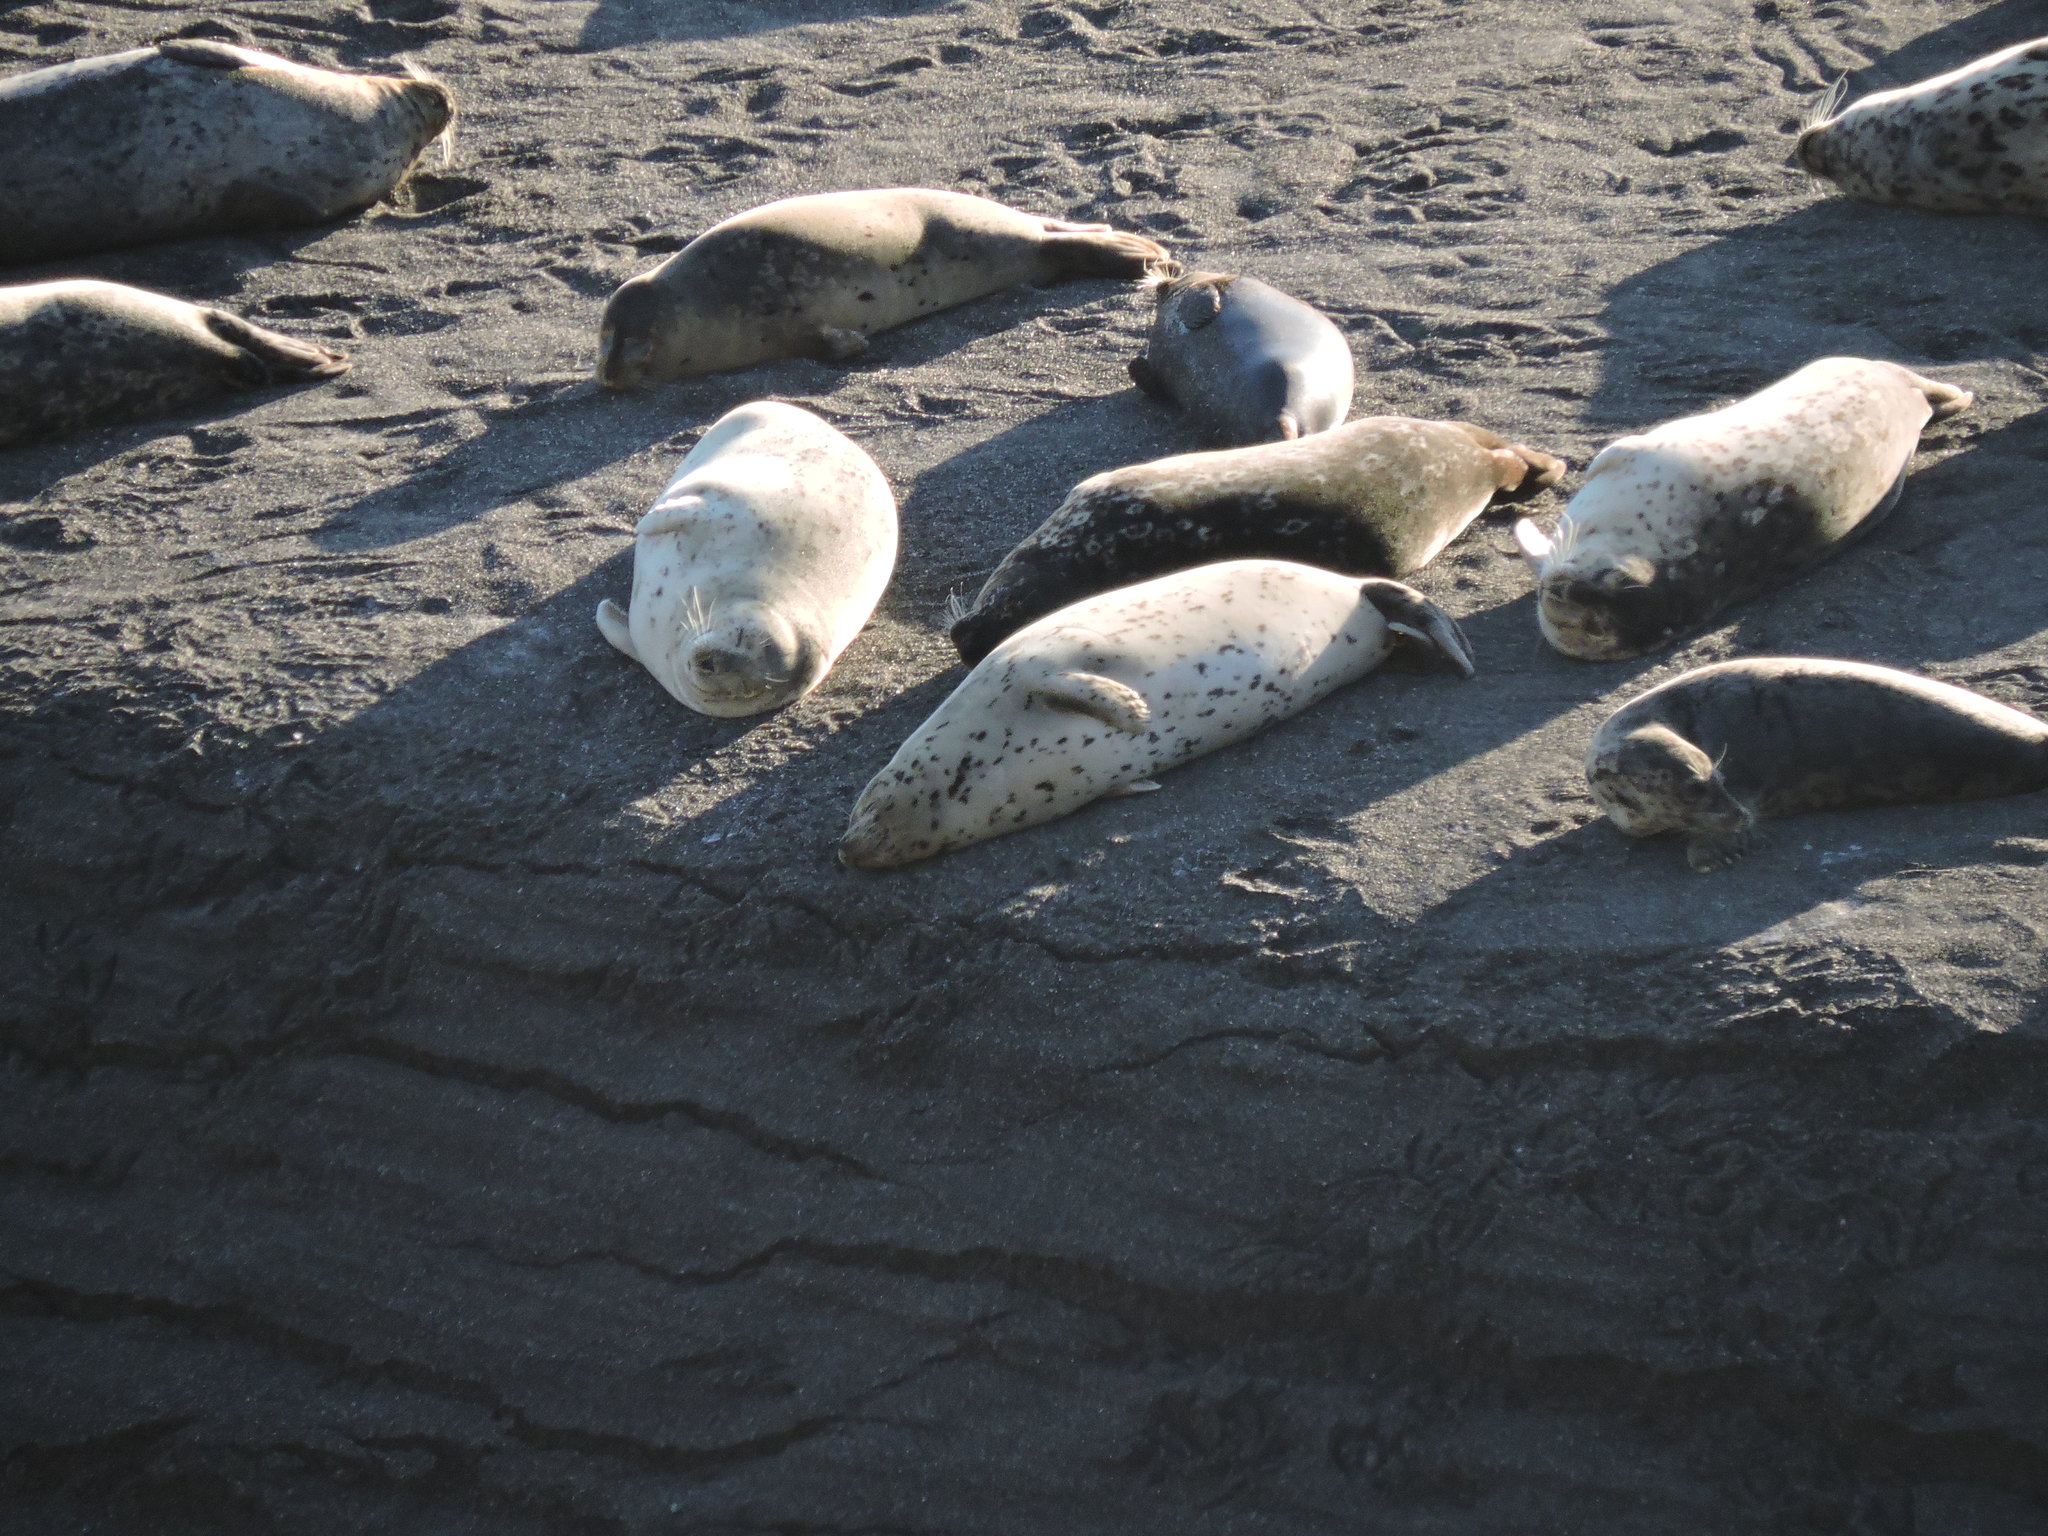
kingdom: Animalia
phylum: Chordata
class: Mammalia
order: Carnivora
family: Phocidae
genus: Phoca
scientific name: Phoca vitulina
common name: Harbor seal
